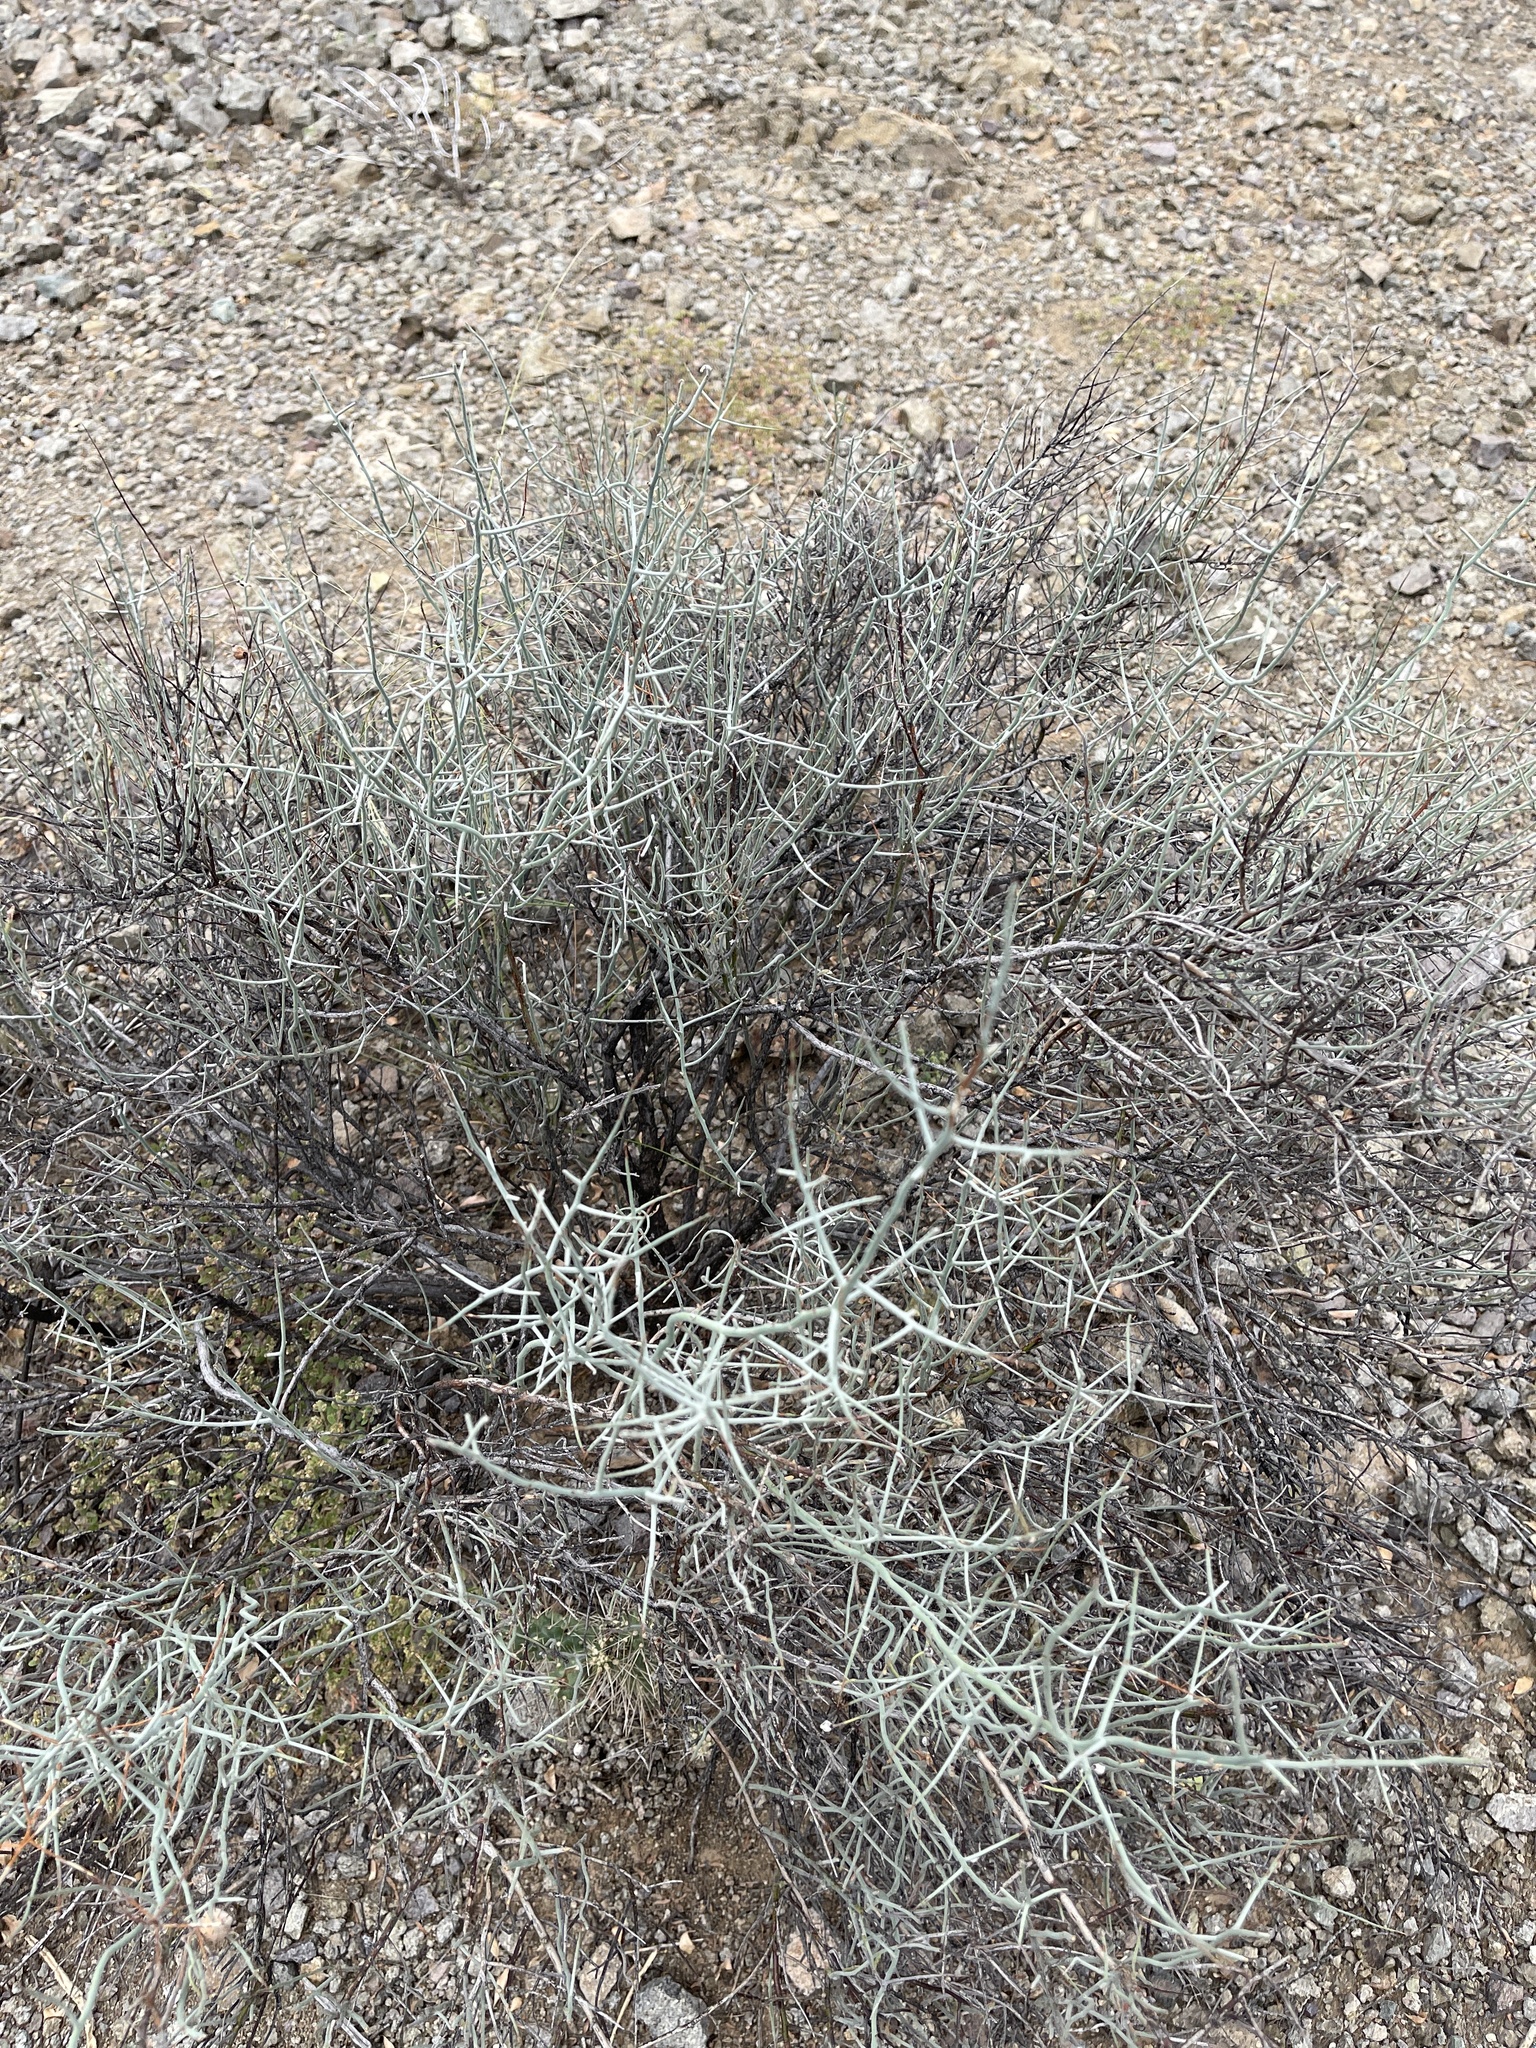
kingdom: Plantae
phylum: Tracheophyta
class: Magnoliopsida
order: Rosales
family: Rhamnaceae
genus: Sarcomphalus
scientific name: Sarcomphalus obtusifolius
